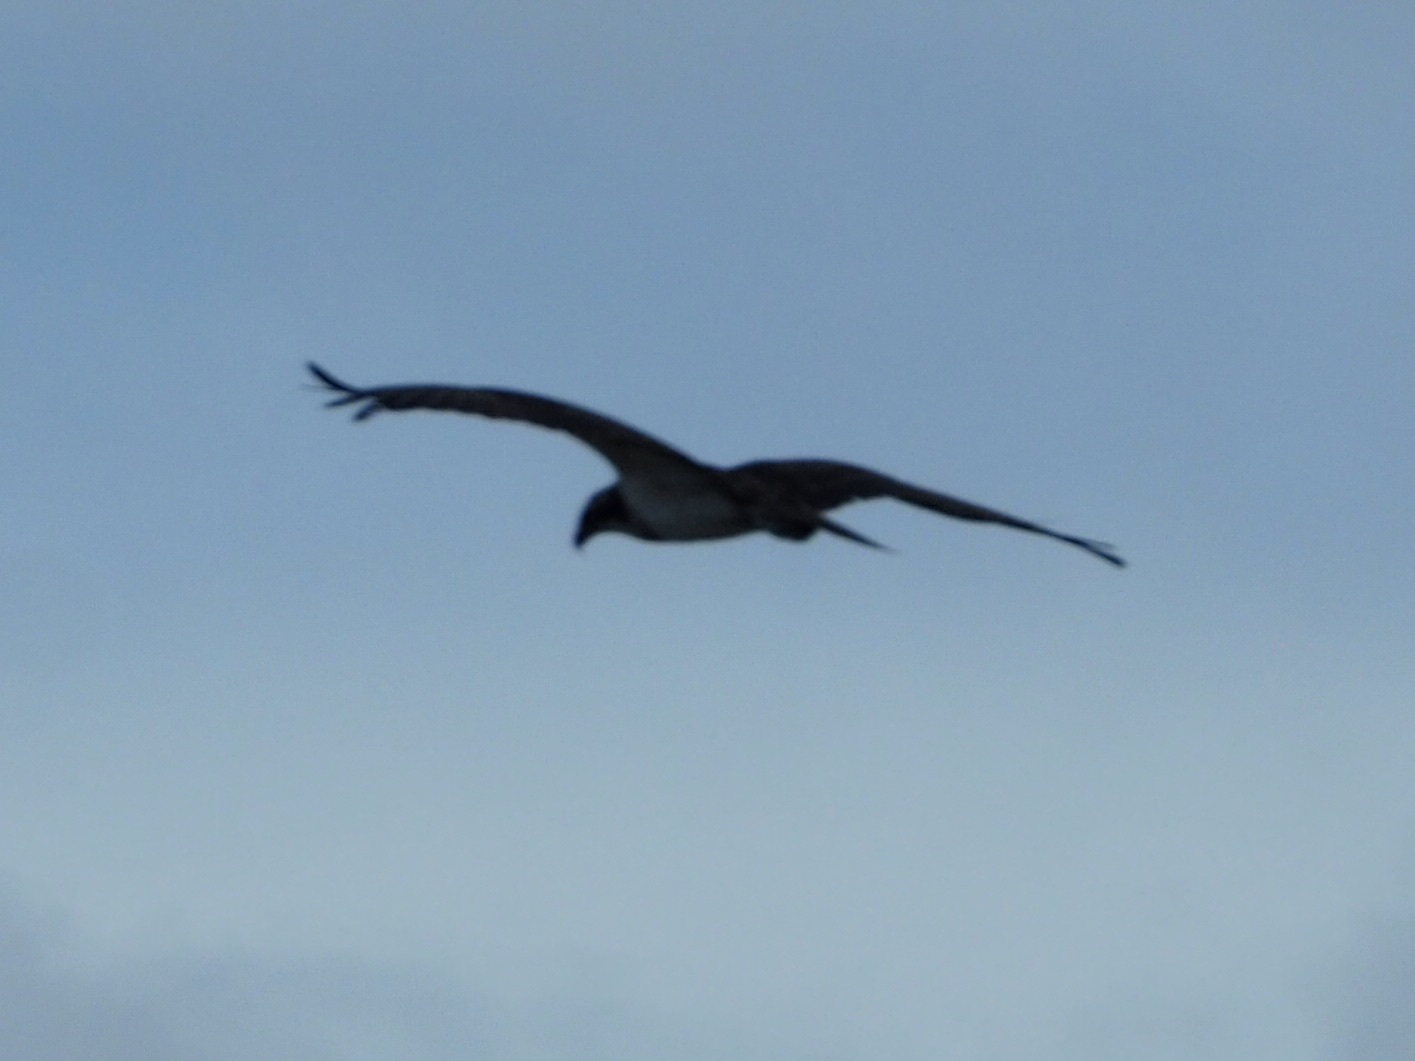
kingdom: Animalia
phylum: Chordata
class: Aves
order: Accipitriformes
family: Pandionidae
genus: Pandion
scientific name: Pandion haliaetus
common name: Osprey
